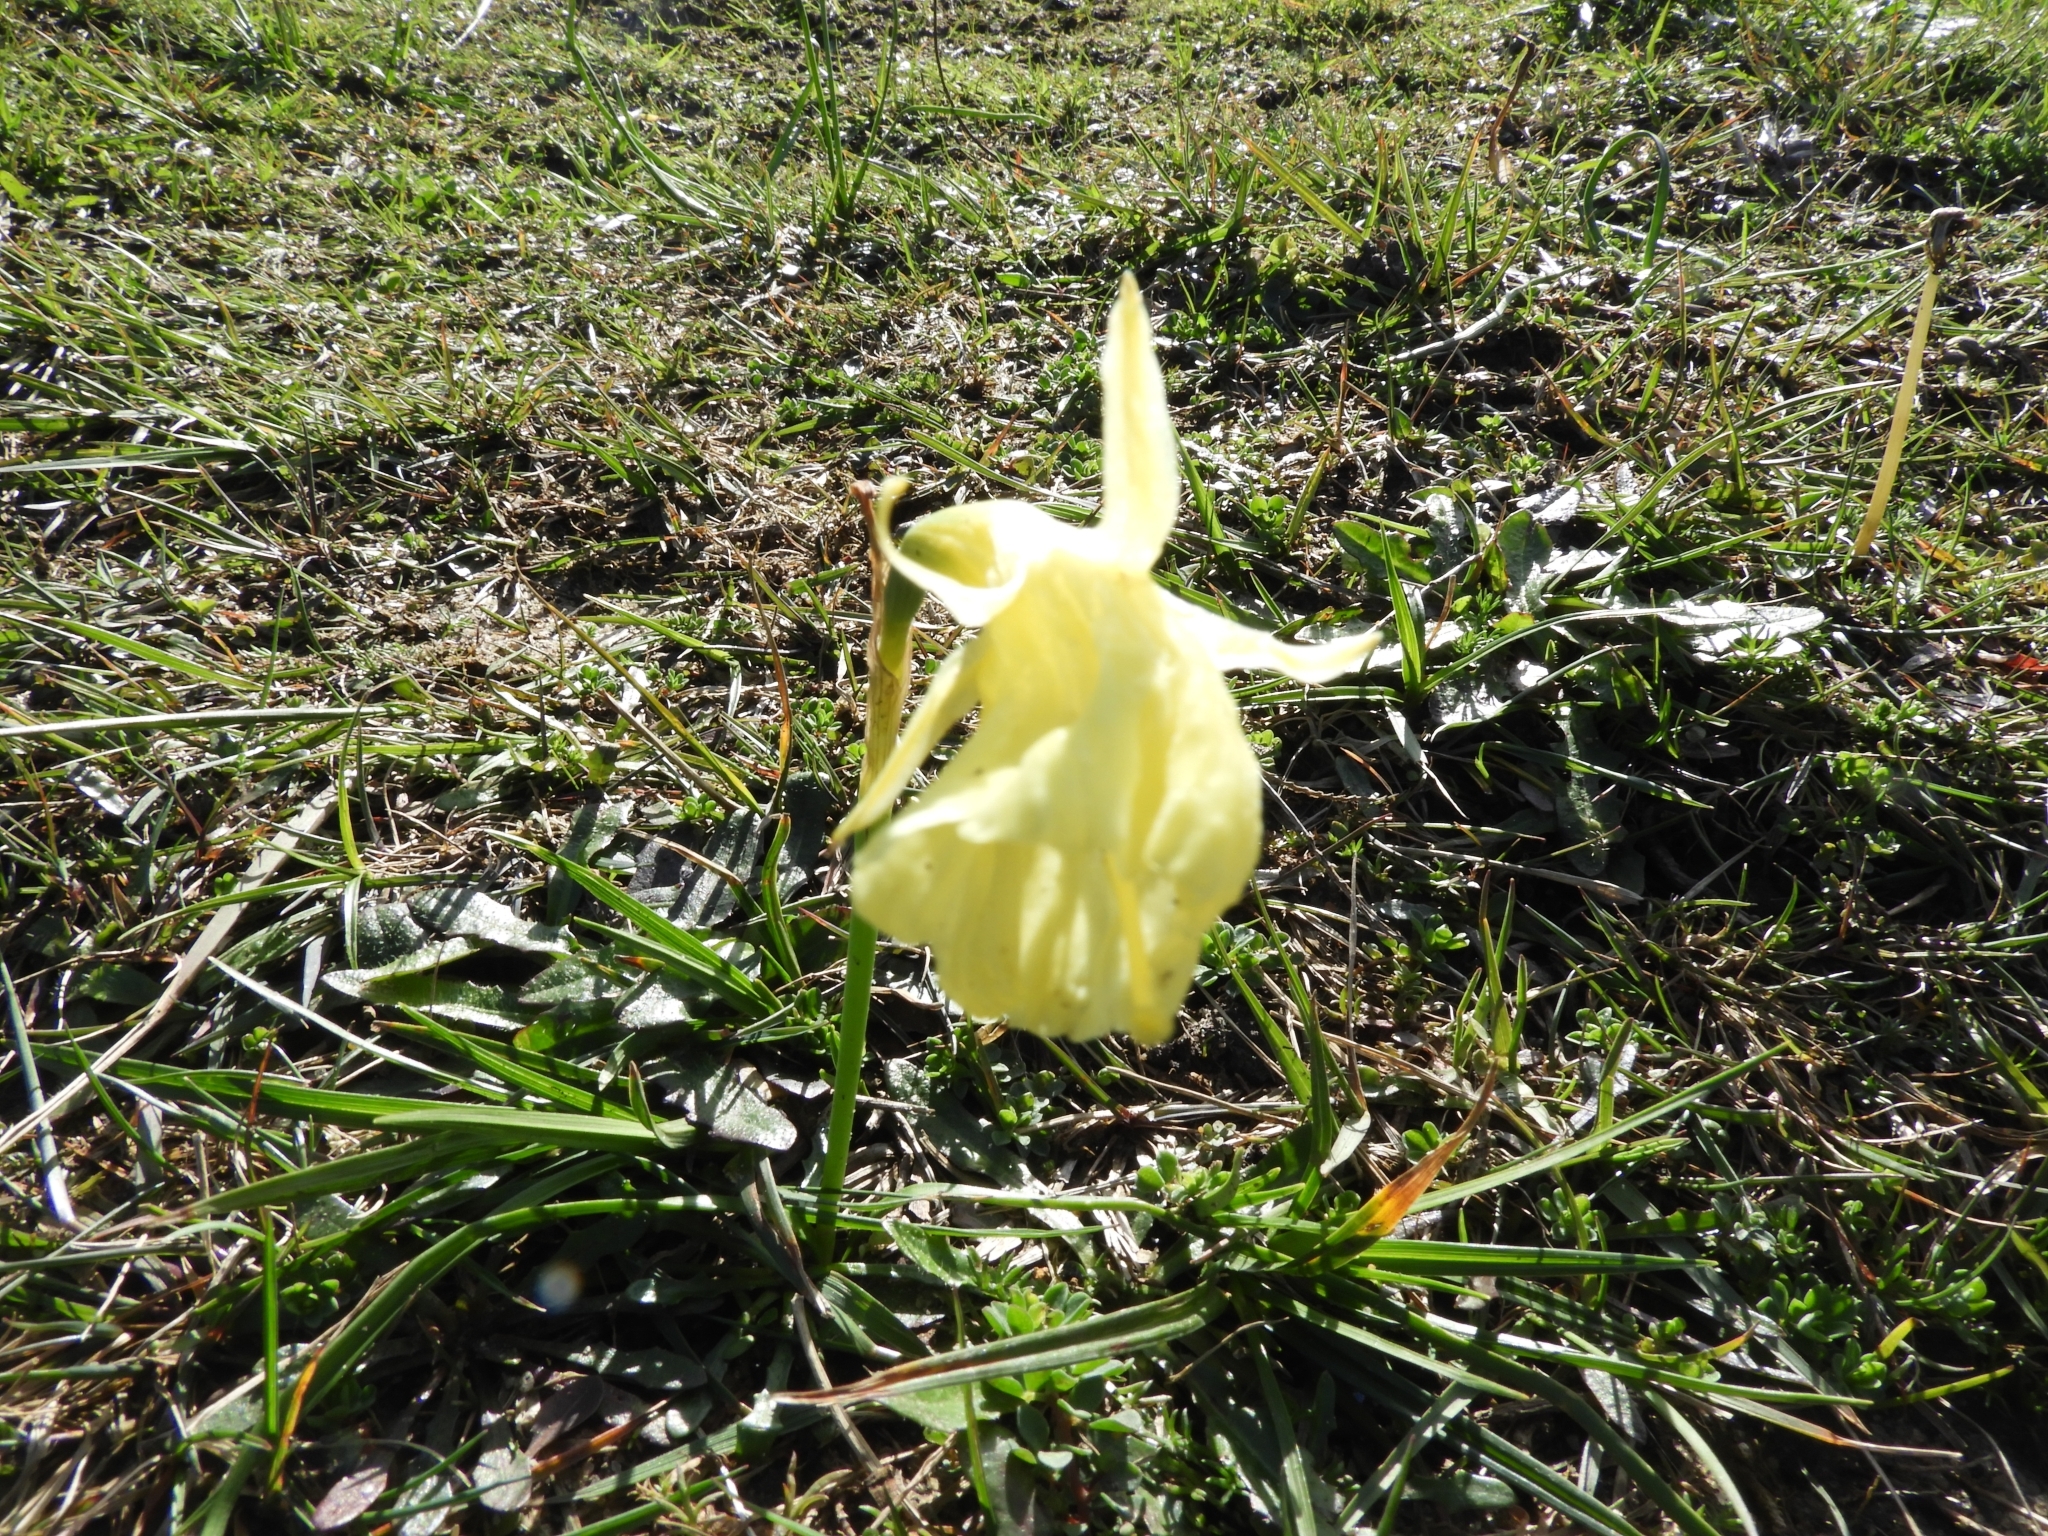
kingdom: Plantae
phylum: Tracheophyta
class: Liliopsida
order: Asparagales
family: Amaryllidaceae
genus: Narcissus
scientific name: Narcissus gigas
